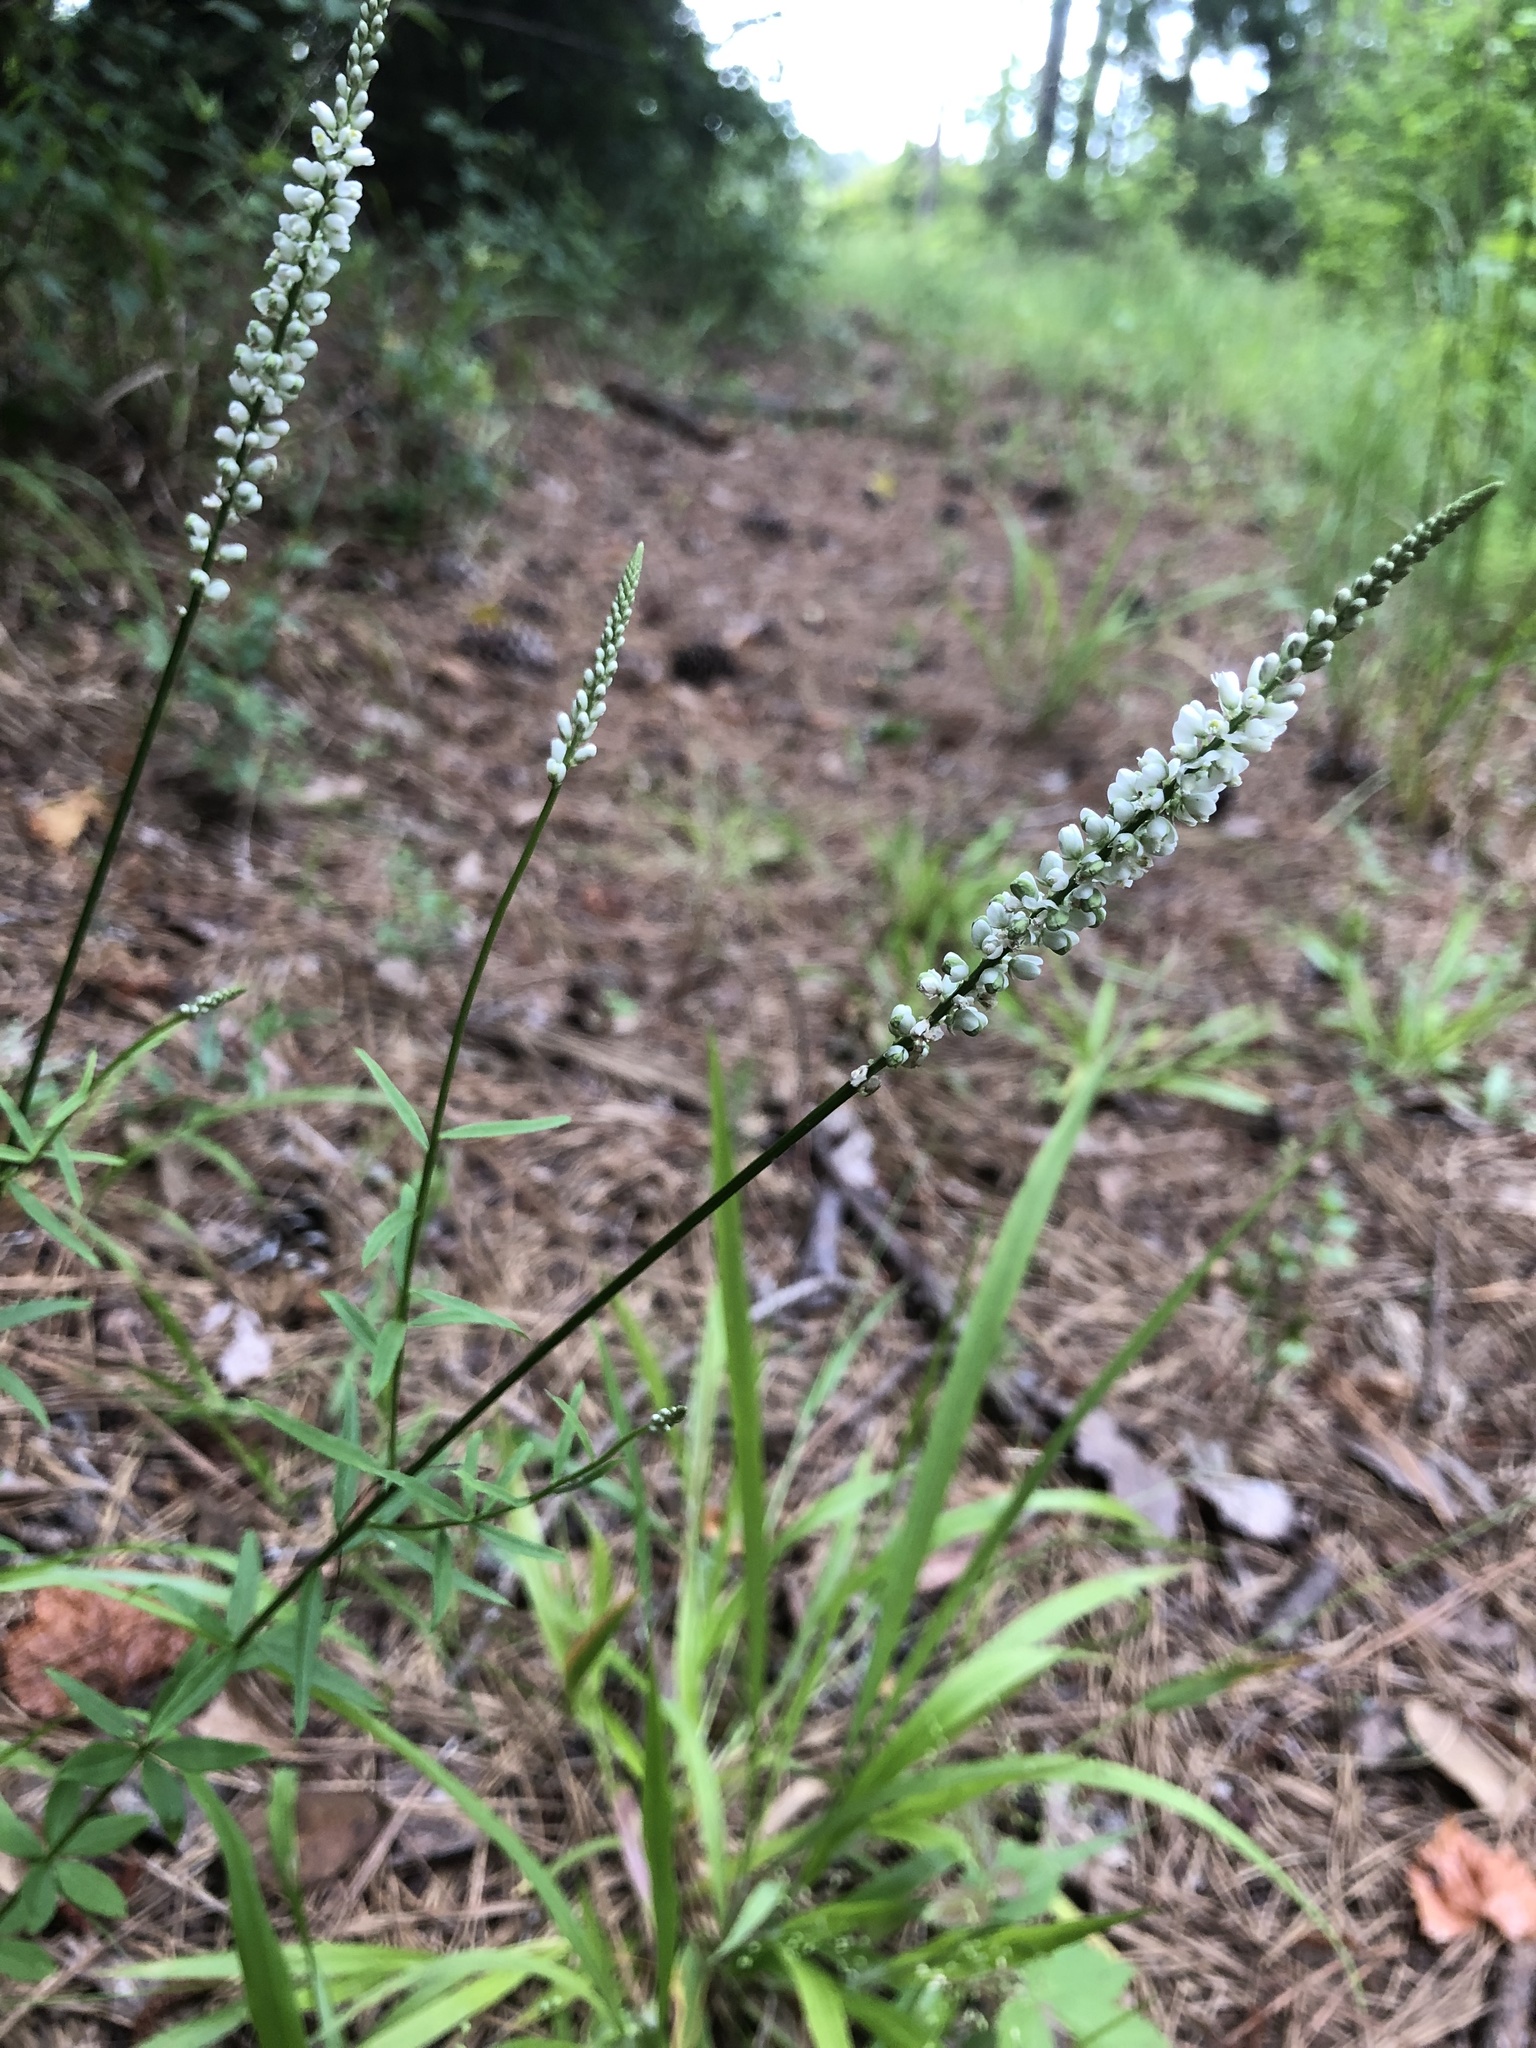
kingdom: Plantae
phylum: Tracheophyta
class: Magnoliopsida
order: Fabales
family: Polygalaceae
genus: Polygala
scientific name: Polygala boykinii
